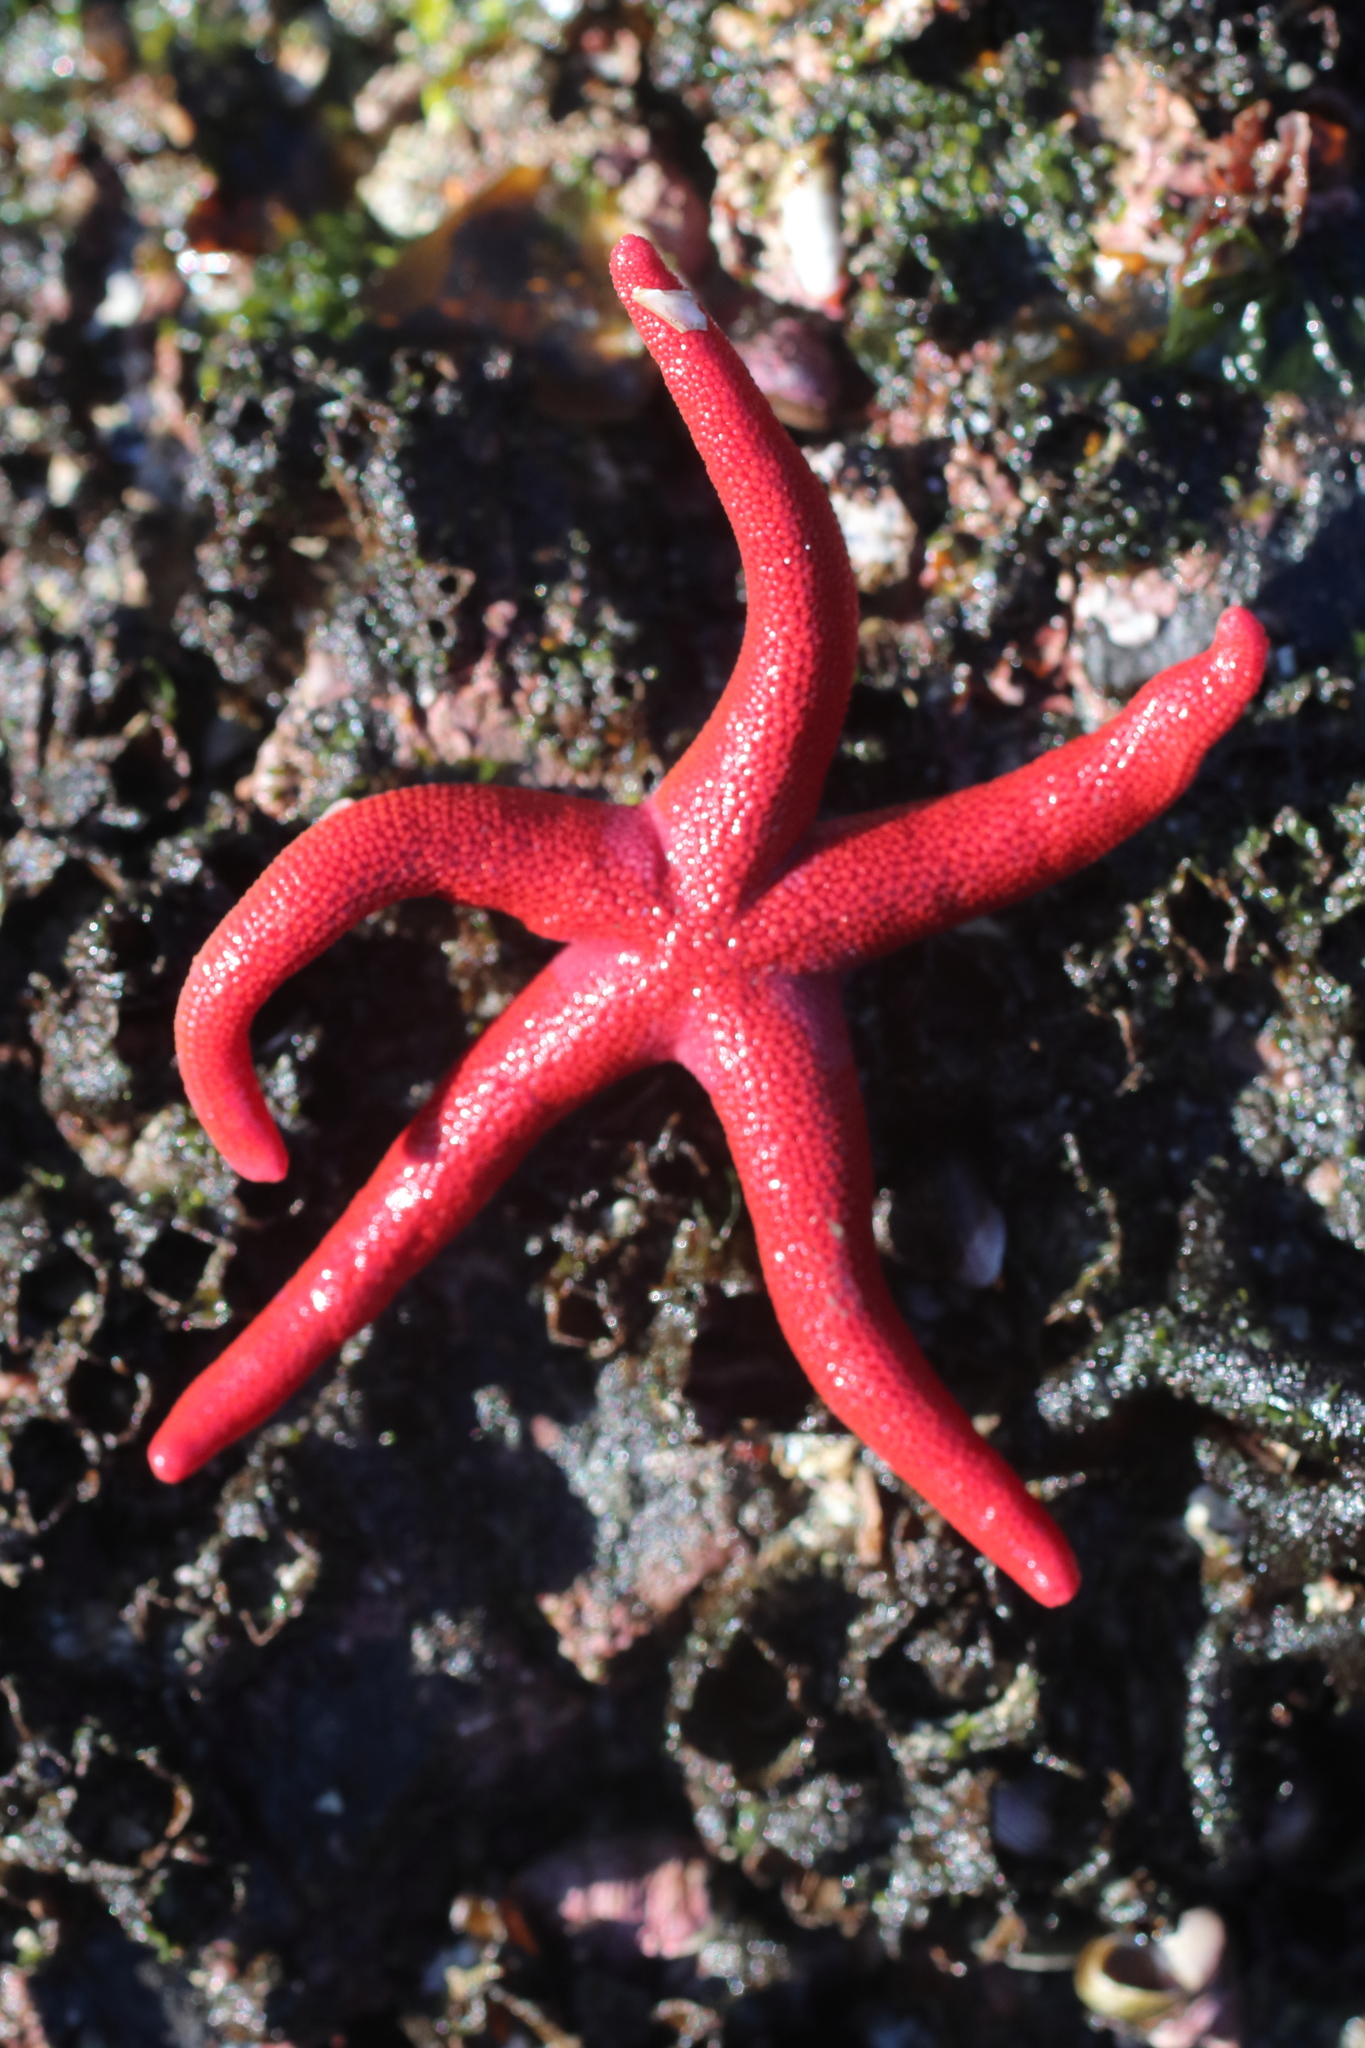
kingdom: Animalia
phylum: Echinodermata
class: Asteroidea
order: Spinulosida
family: Echinasteridae
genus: Henricia
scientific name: Henricia leviuscula
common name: Pacific blood star
